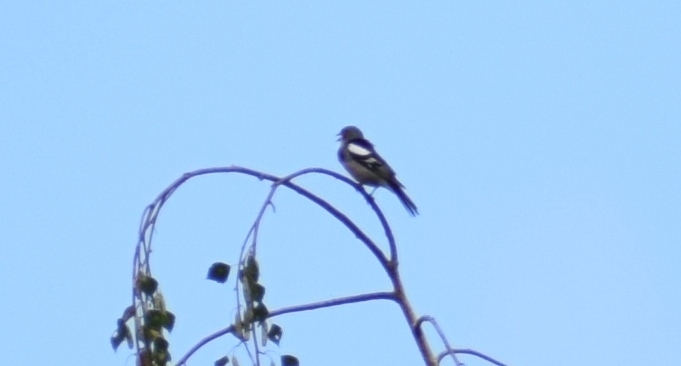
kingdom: Animalia
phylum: Chordata
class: Aves
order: Passeriformes
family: Fringillidae
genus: Fringilla
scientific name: Fringilla coelebs
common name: Common chaffinch
